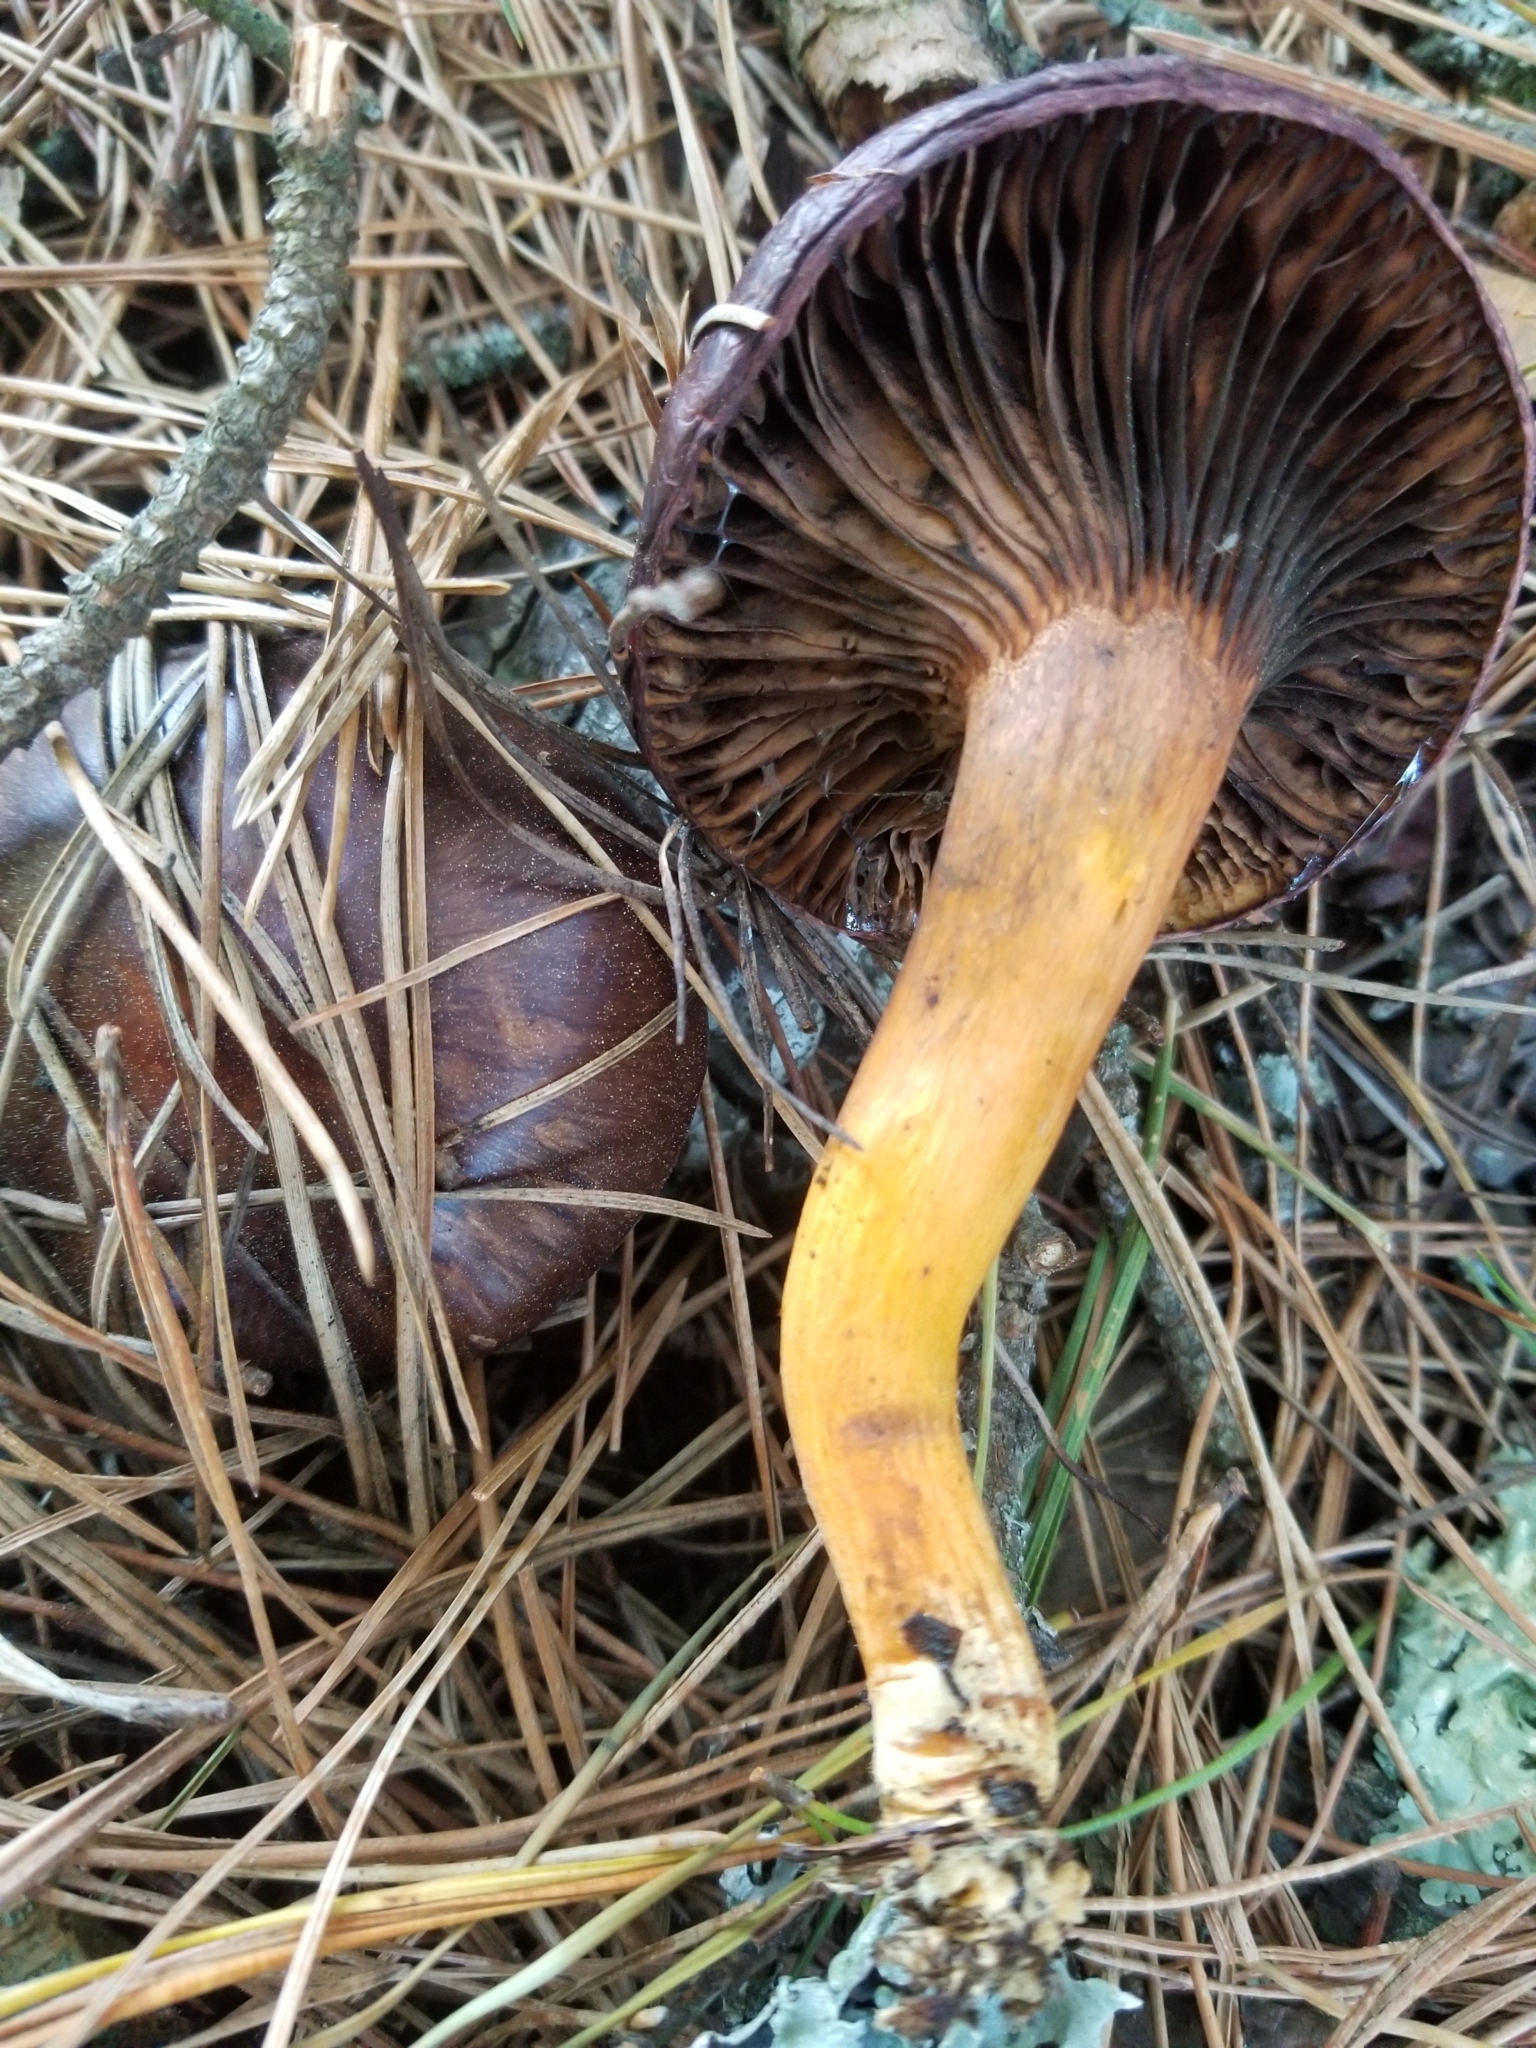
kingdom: Fungi
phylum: Basidiomycota
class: Agaricomycetes
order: Boletales
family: Gomphidiaceae
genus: Chroogomphus
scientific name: Chroogomphus vinicolor
